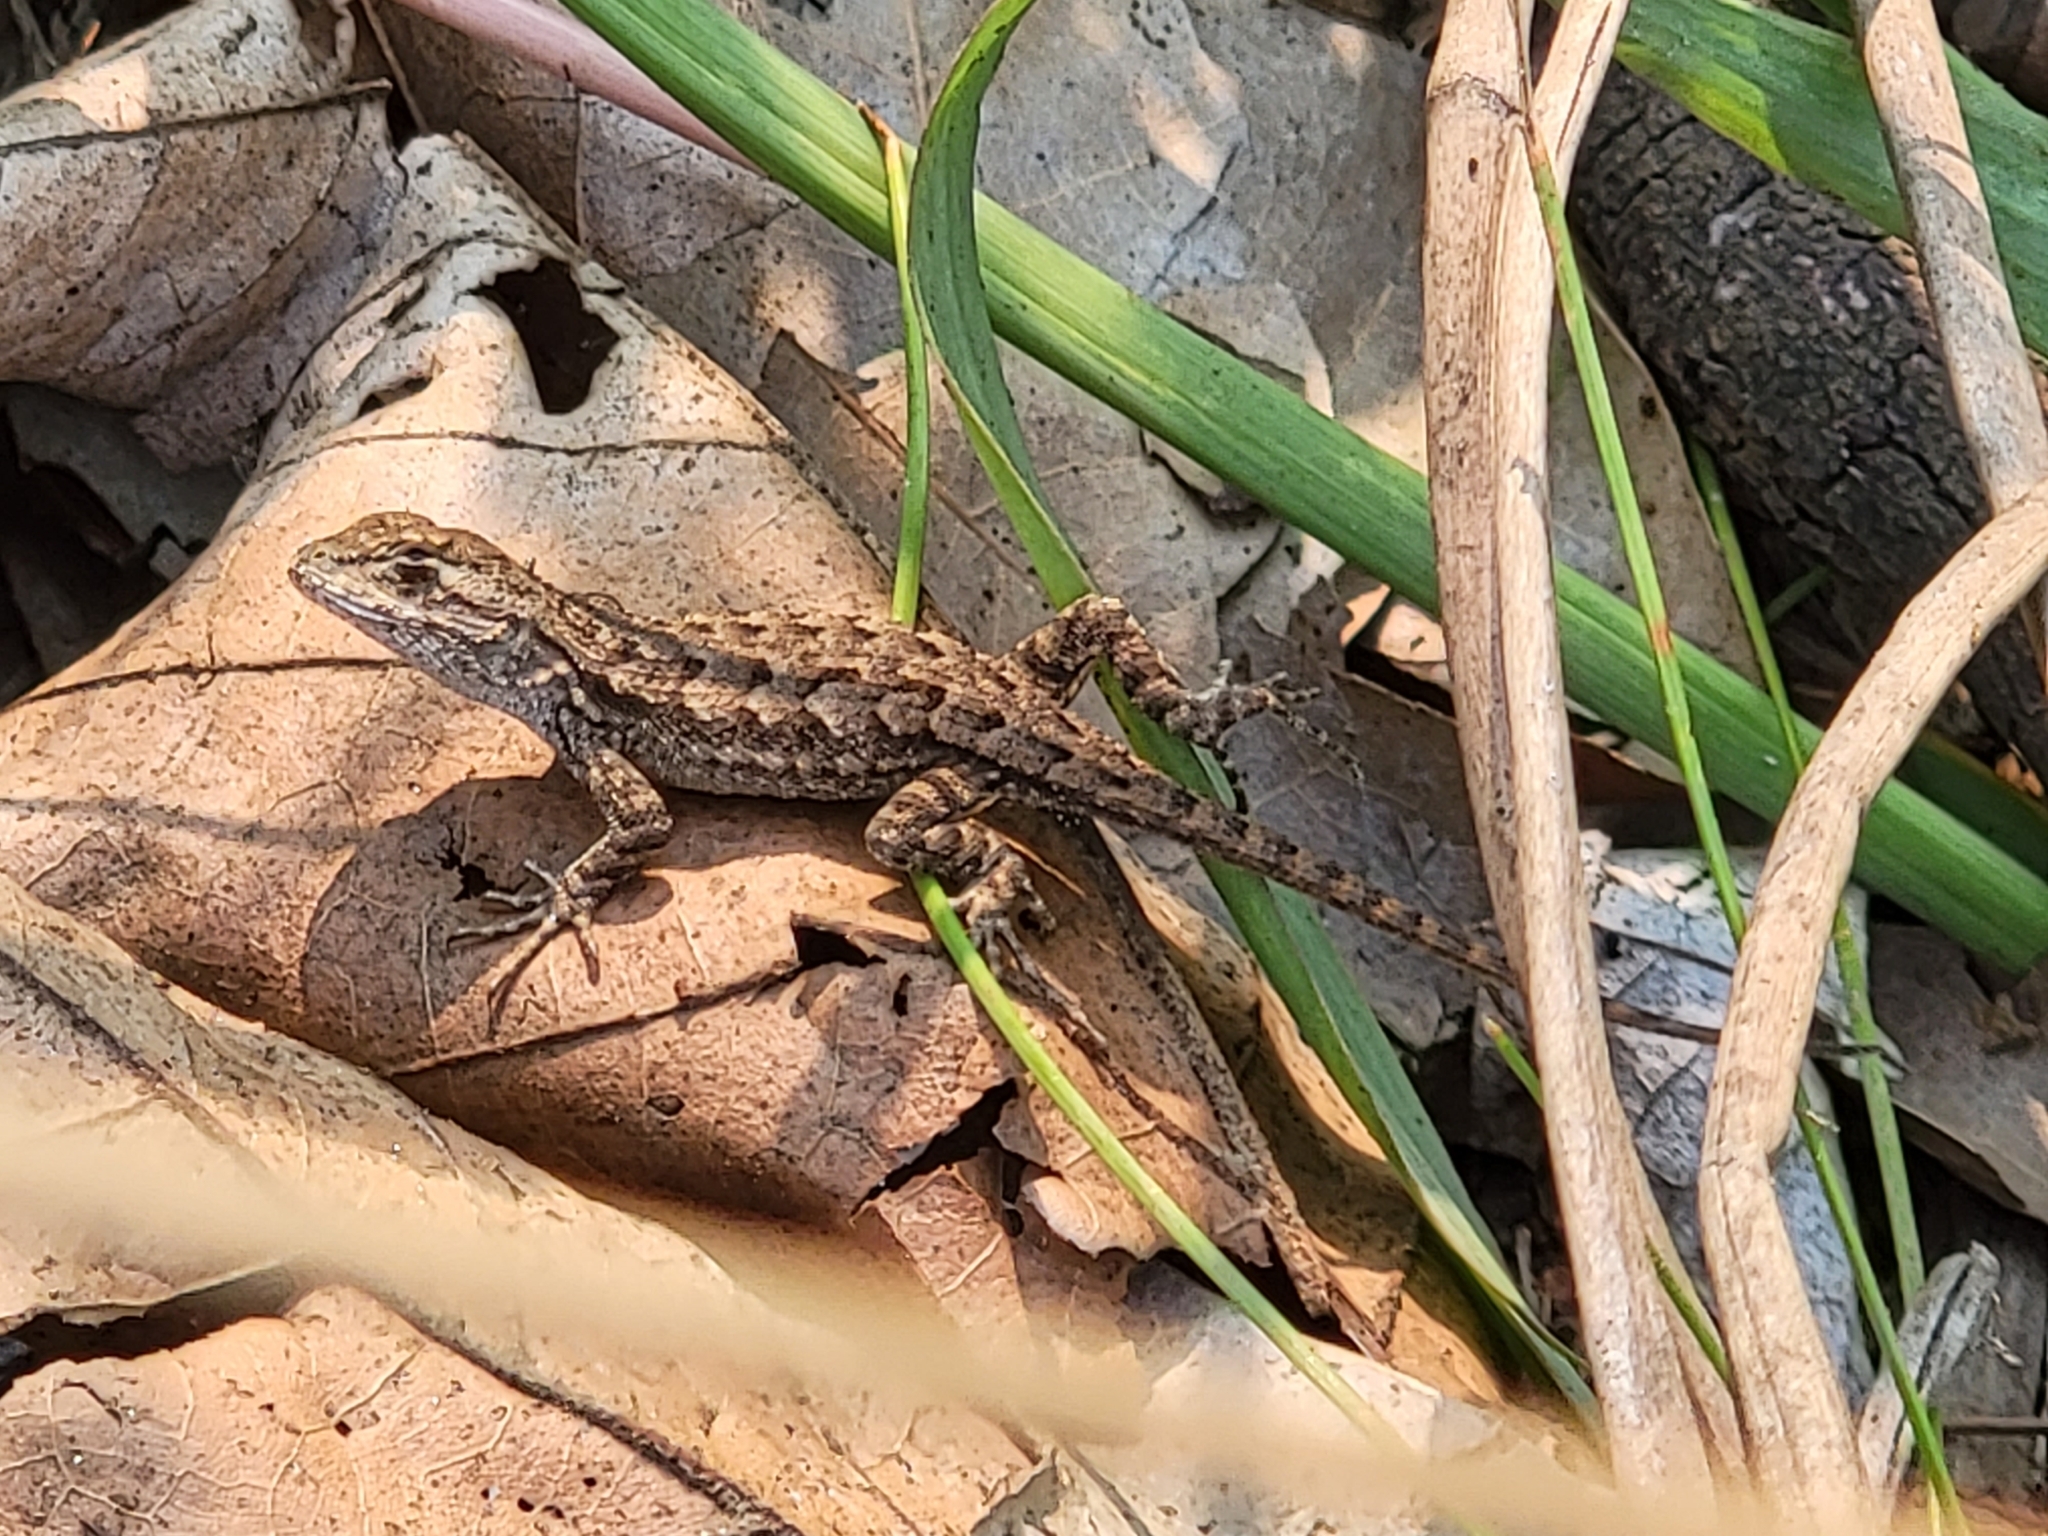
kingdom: Animalia
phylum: Chordata
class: Squamata
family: Phrynosomatidae
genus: Sceloporus
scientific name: Sceloporus occidentalis
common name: Western fence lizard
